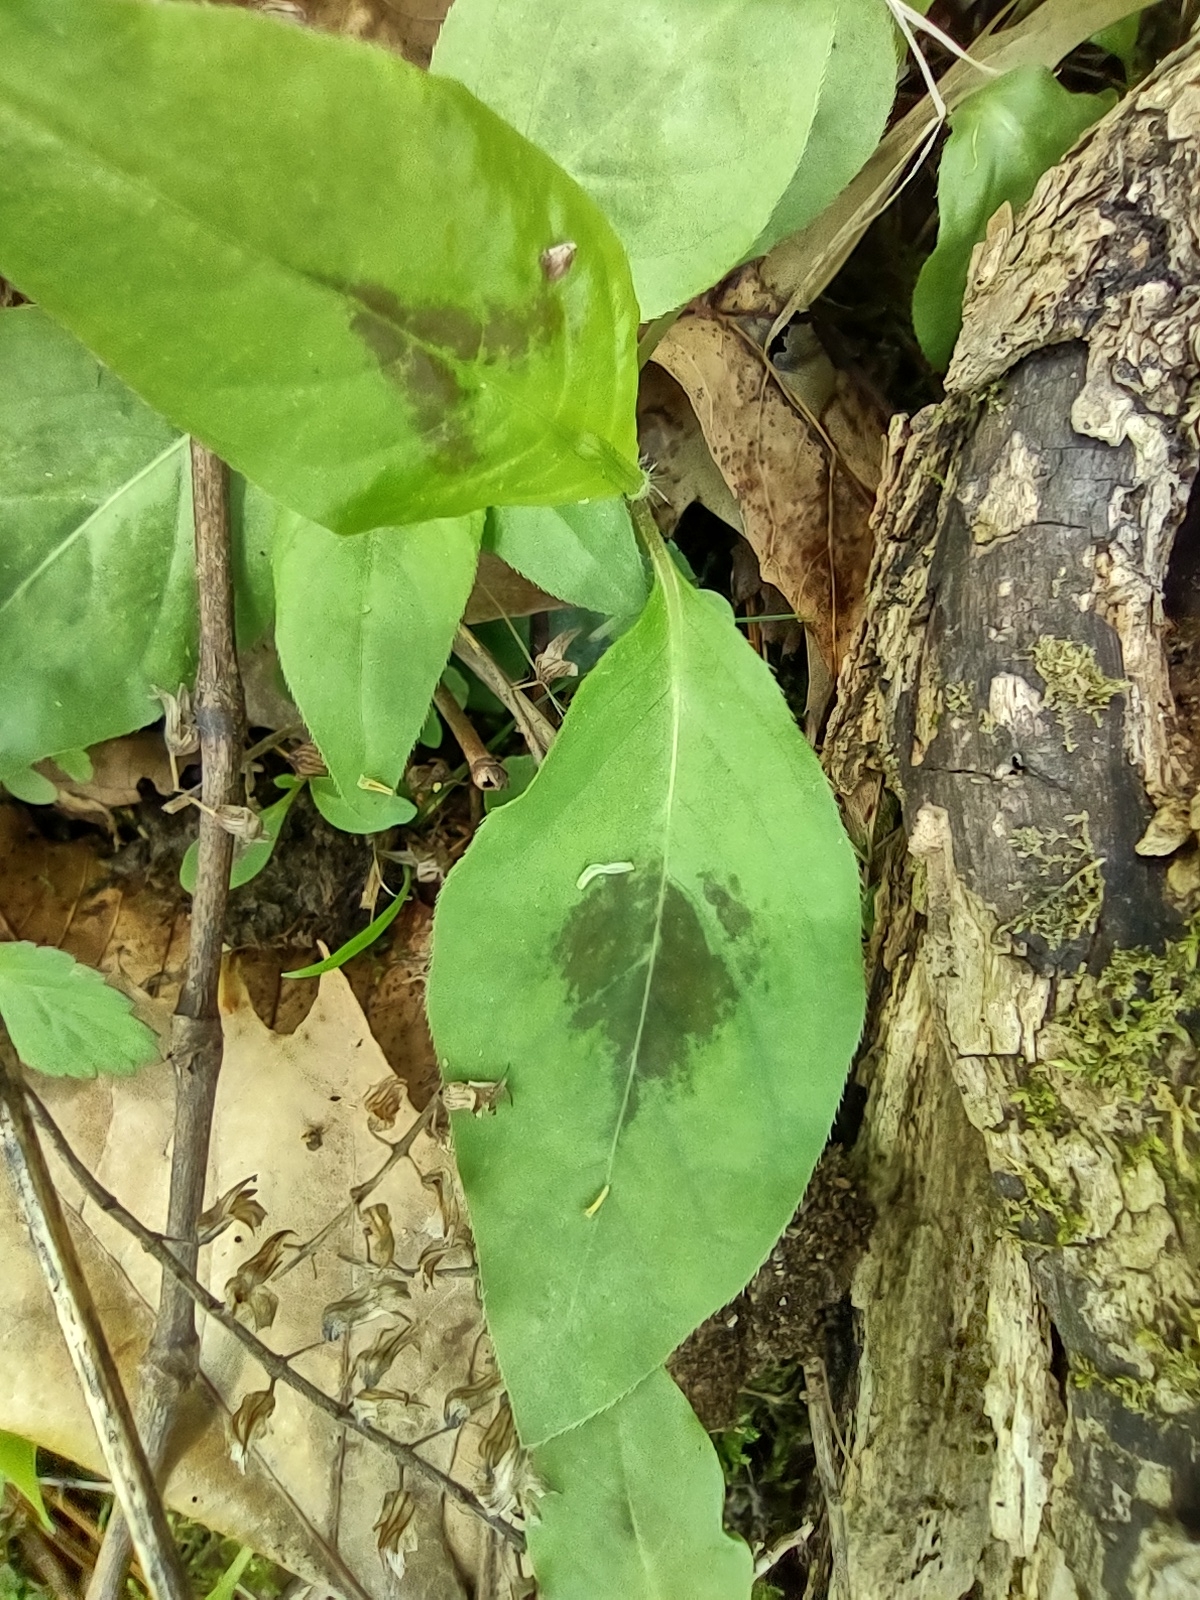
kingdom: Plantae
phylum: Tracheophyta
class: Magnoliopsida
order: Caryophyllales
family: Polygonaceae
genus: Persicaria
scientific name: Persicaria virginiana
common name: Jumpseed
